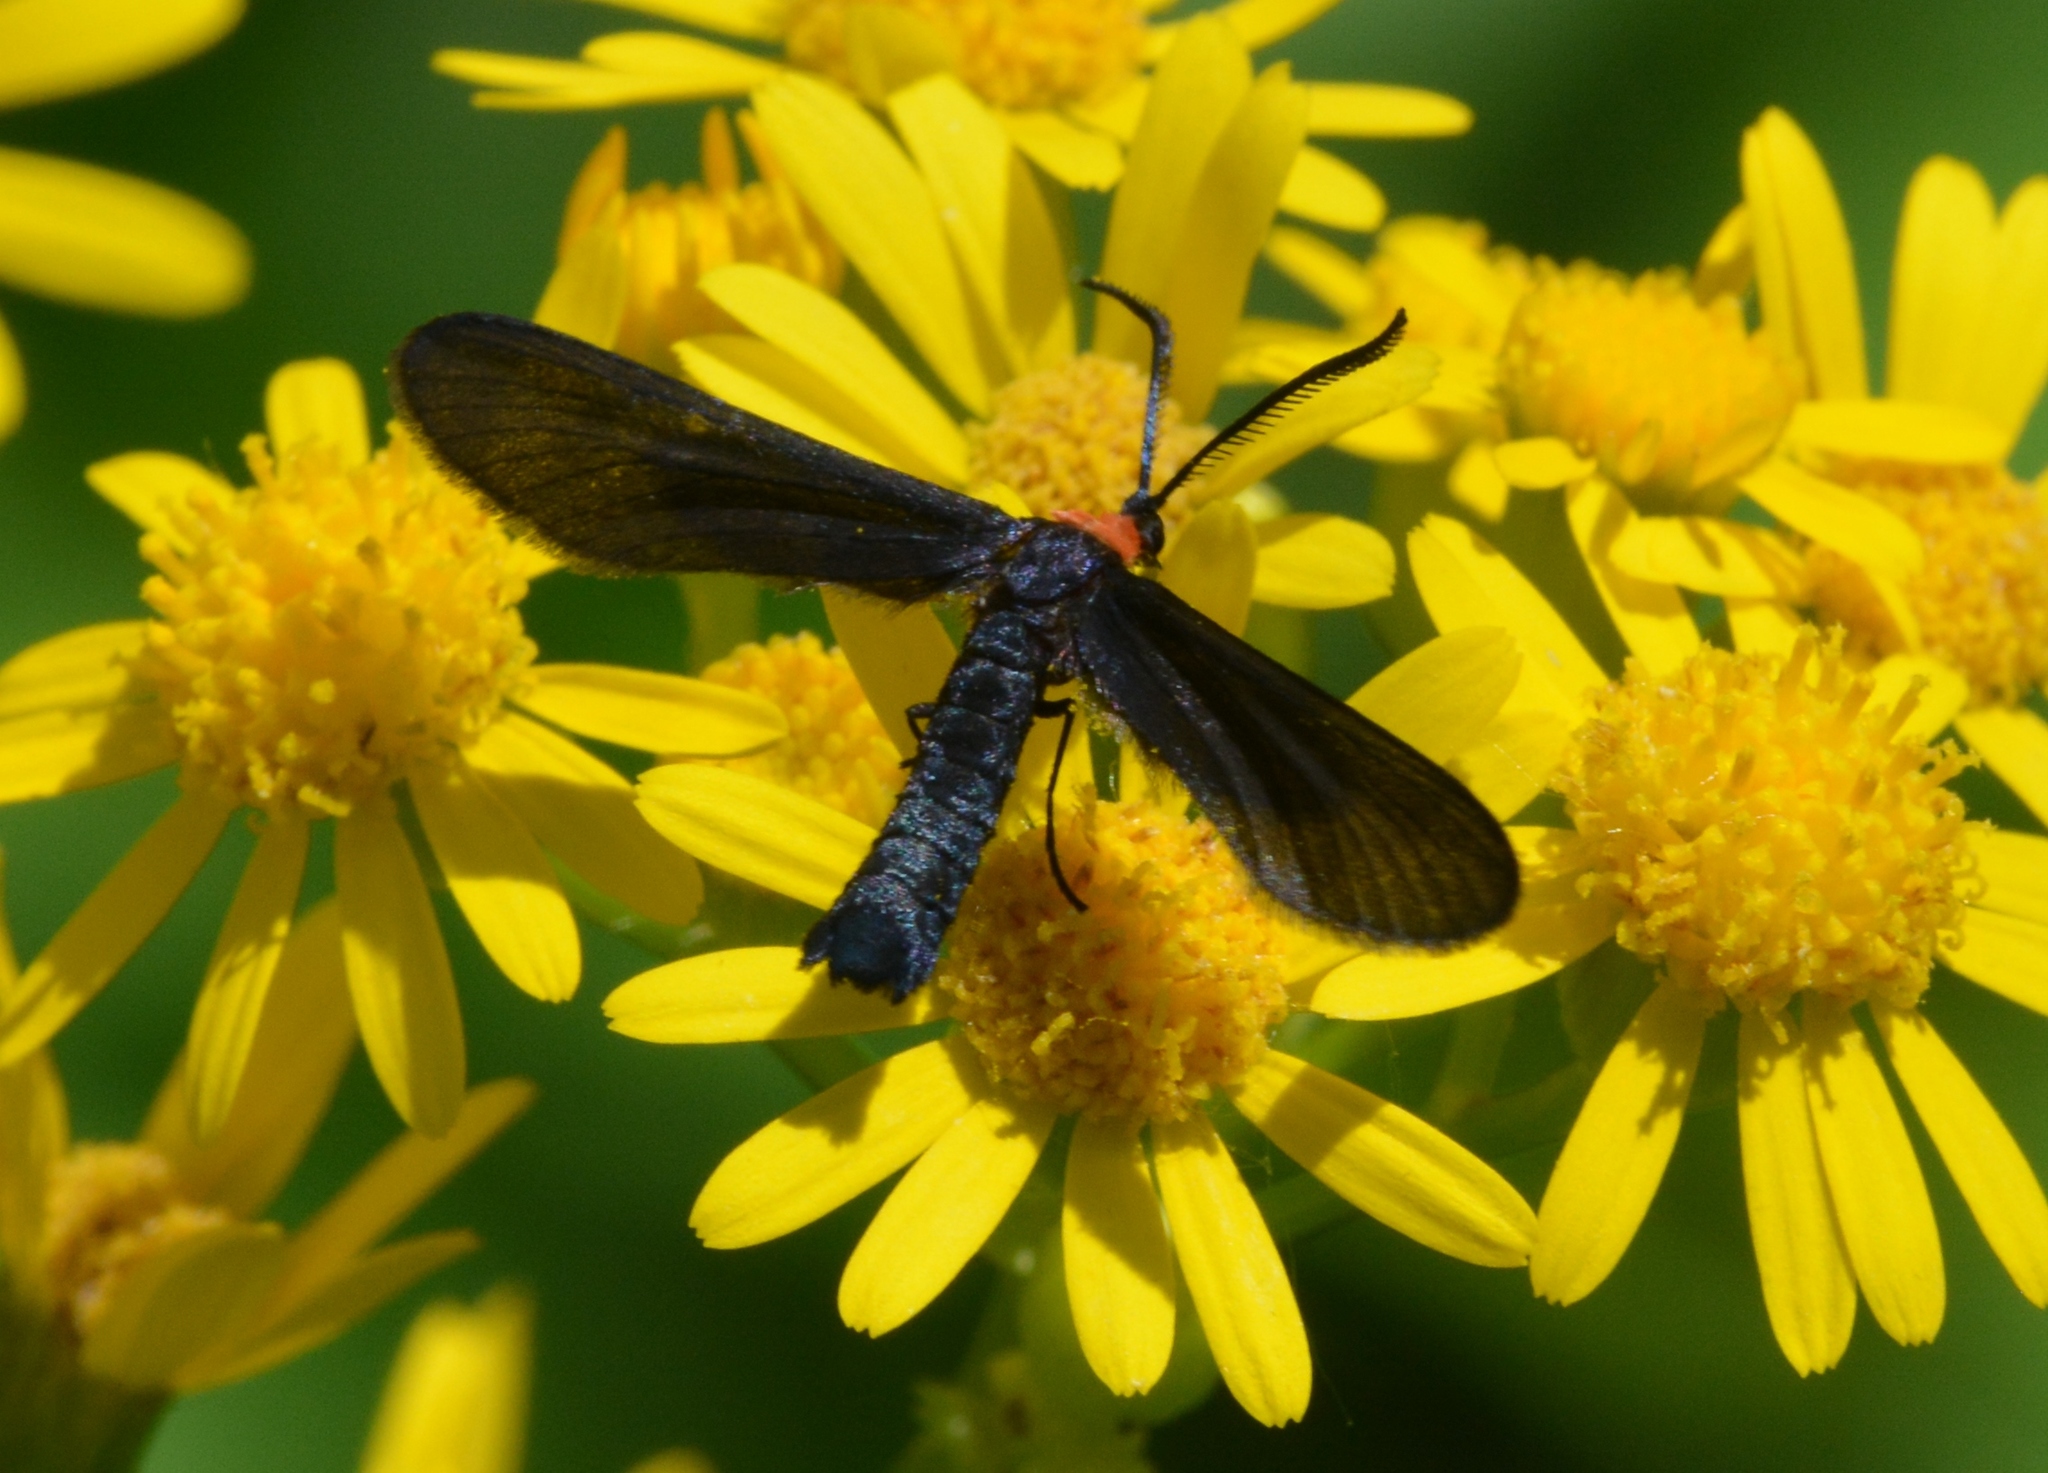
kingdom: Animalia
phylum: Arthropoda
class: Insecta
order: Lepidoptera
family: Zygaenidae
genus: Harrisina
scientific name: Harrisina americana
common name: Grapeleaf skeletonizer moth
